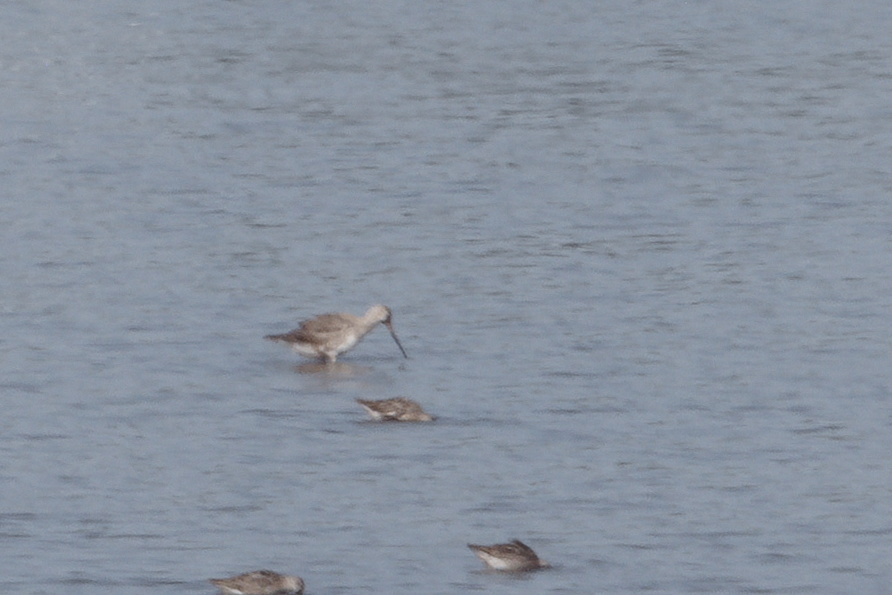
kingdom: Animalia
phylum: Chordata
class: Aves
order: Charadriiformes
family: Scolopacidae
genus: Limosa
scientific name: Limosa haemastica
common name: Hudsonian godwit
